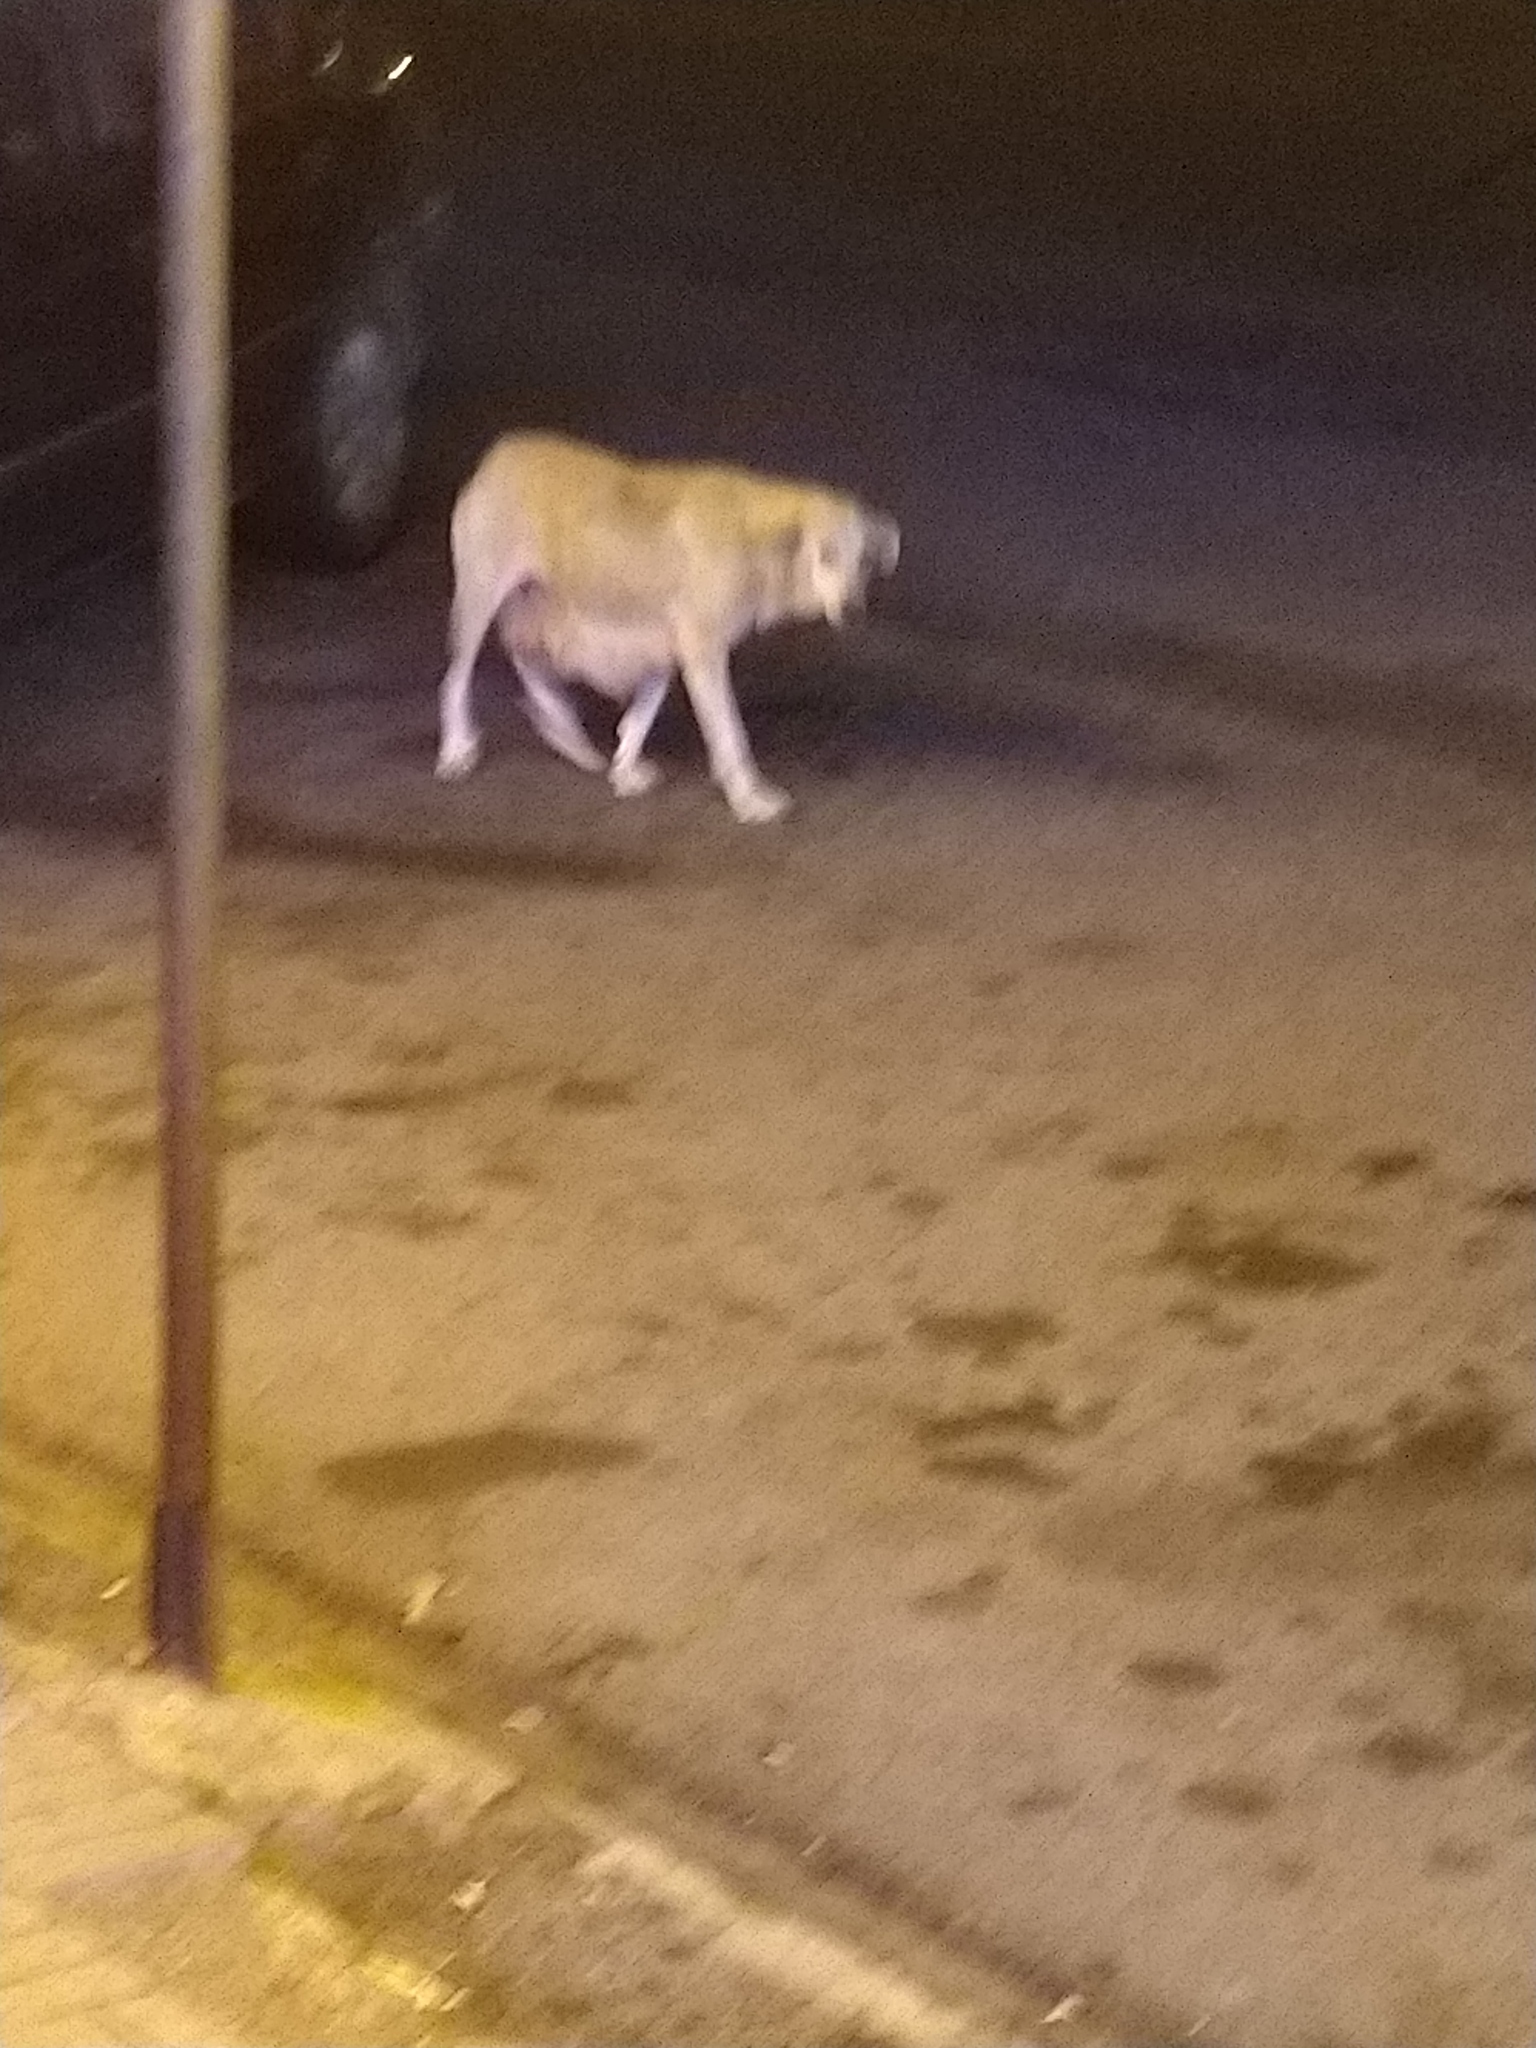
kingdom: Animalia
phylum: Chordata
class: Mammalia
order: Carnivora
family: Canidae
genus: Canis
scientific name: Canis lupus
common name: Gray wolf
